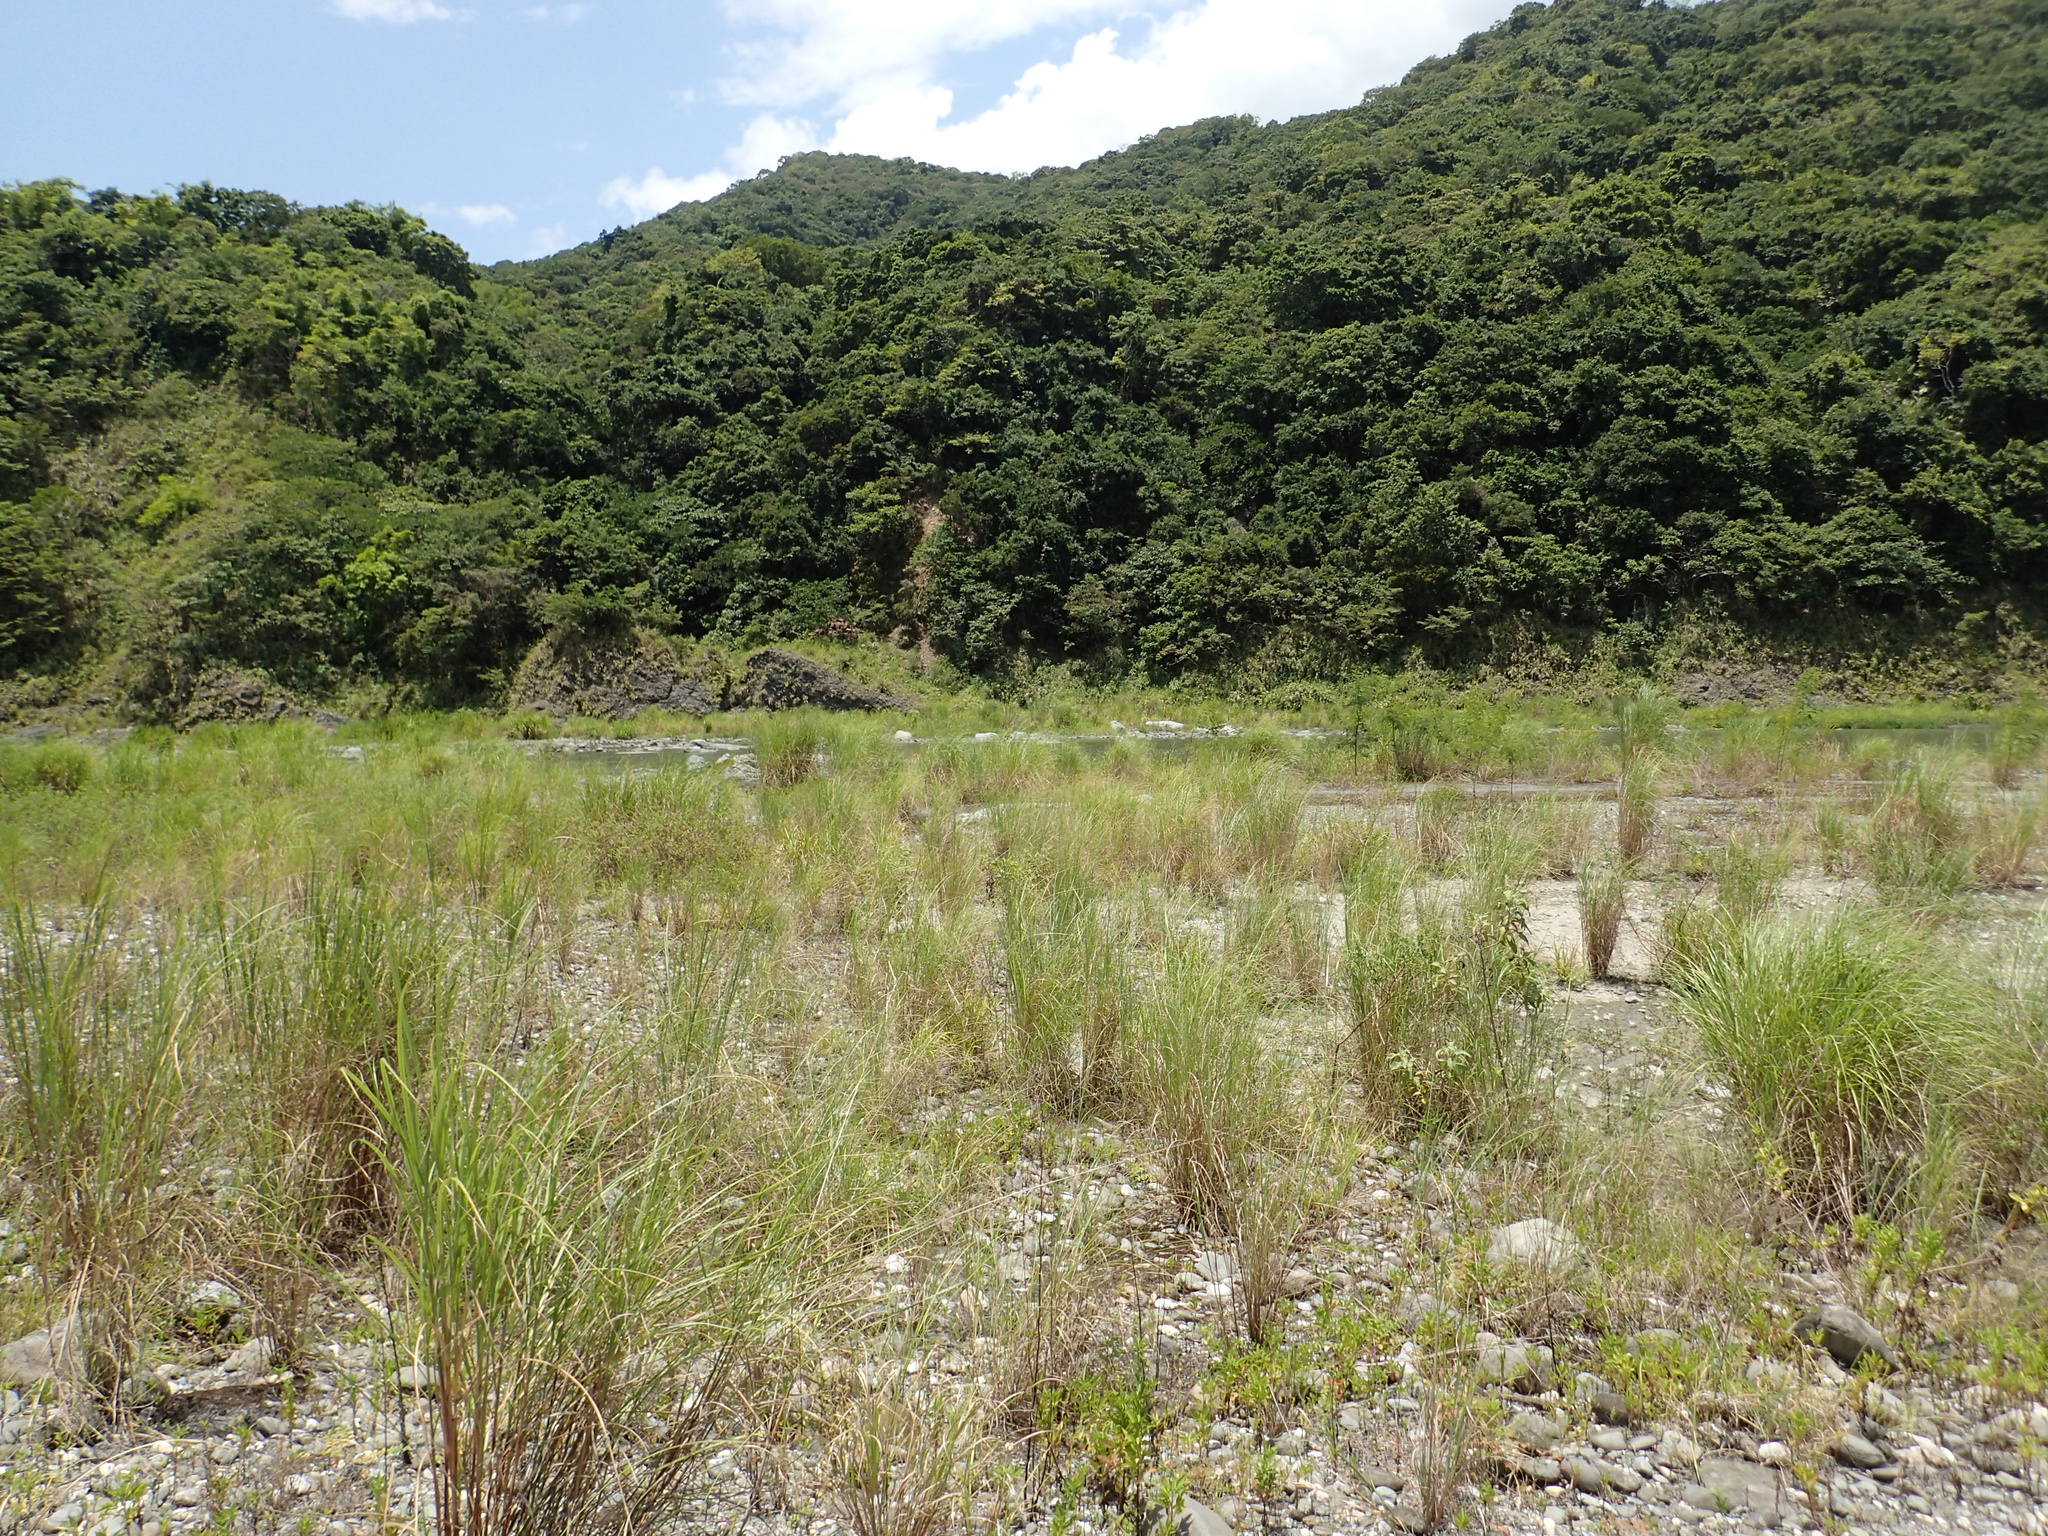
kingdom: Plantae
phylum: Tracheophyta
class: Liliopsida
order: Poales
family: Poaceae
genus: Saccharum
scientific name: Saccharum spontaneum
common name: Wild sugarcane
